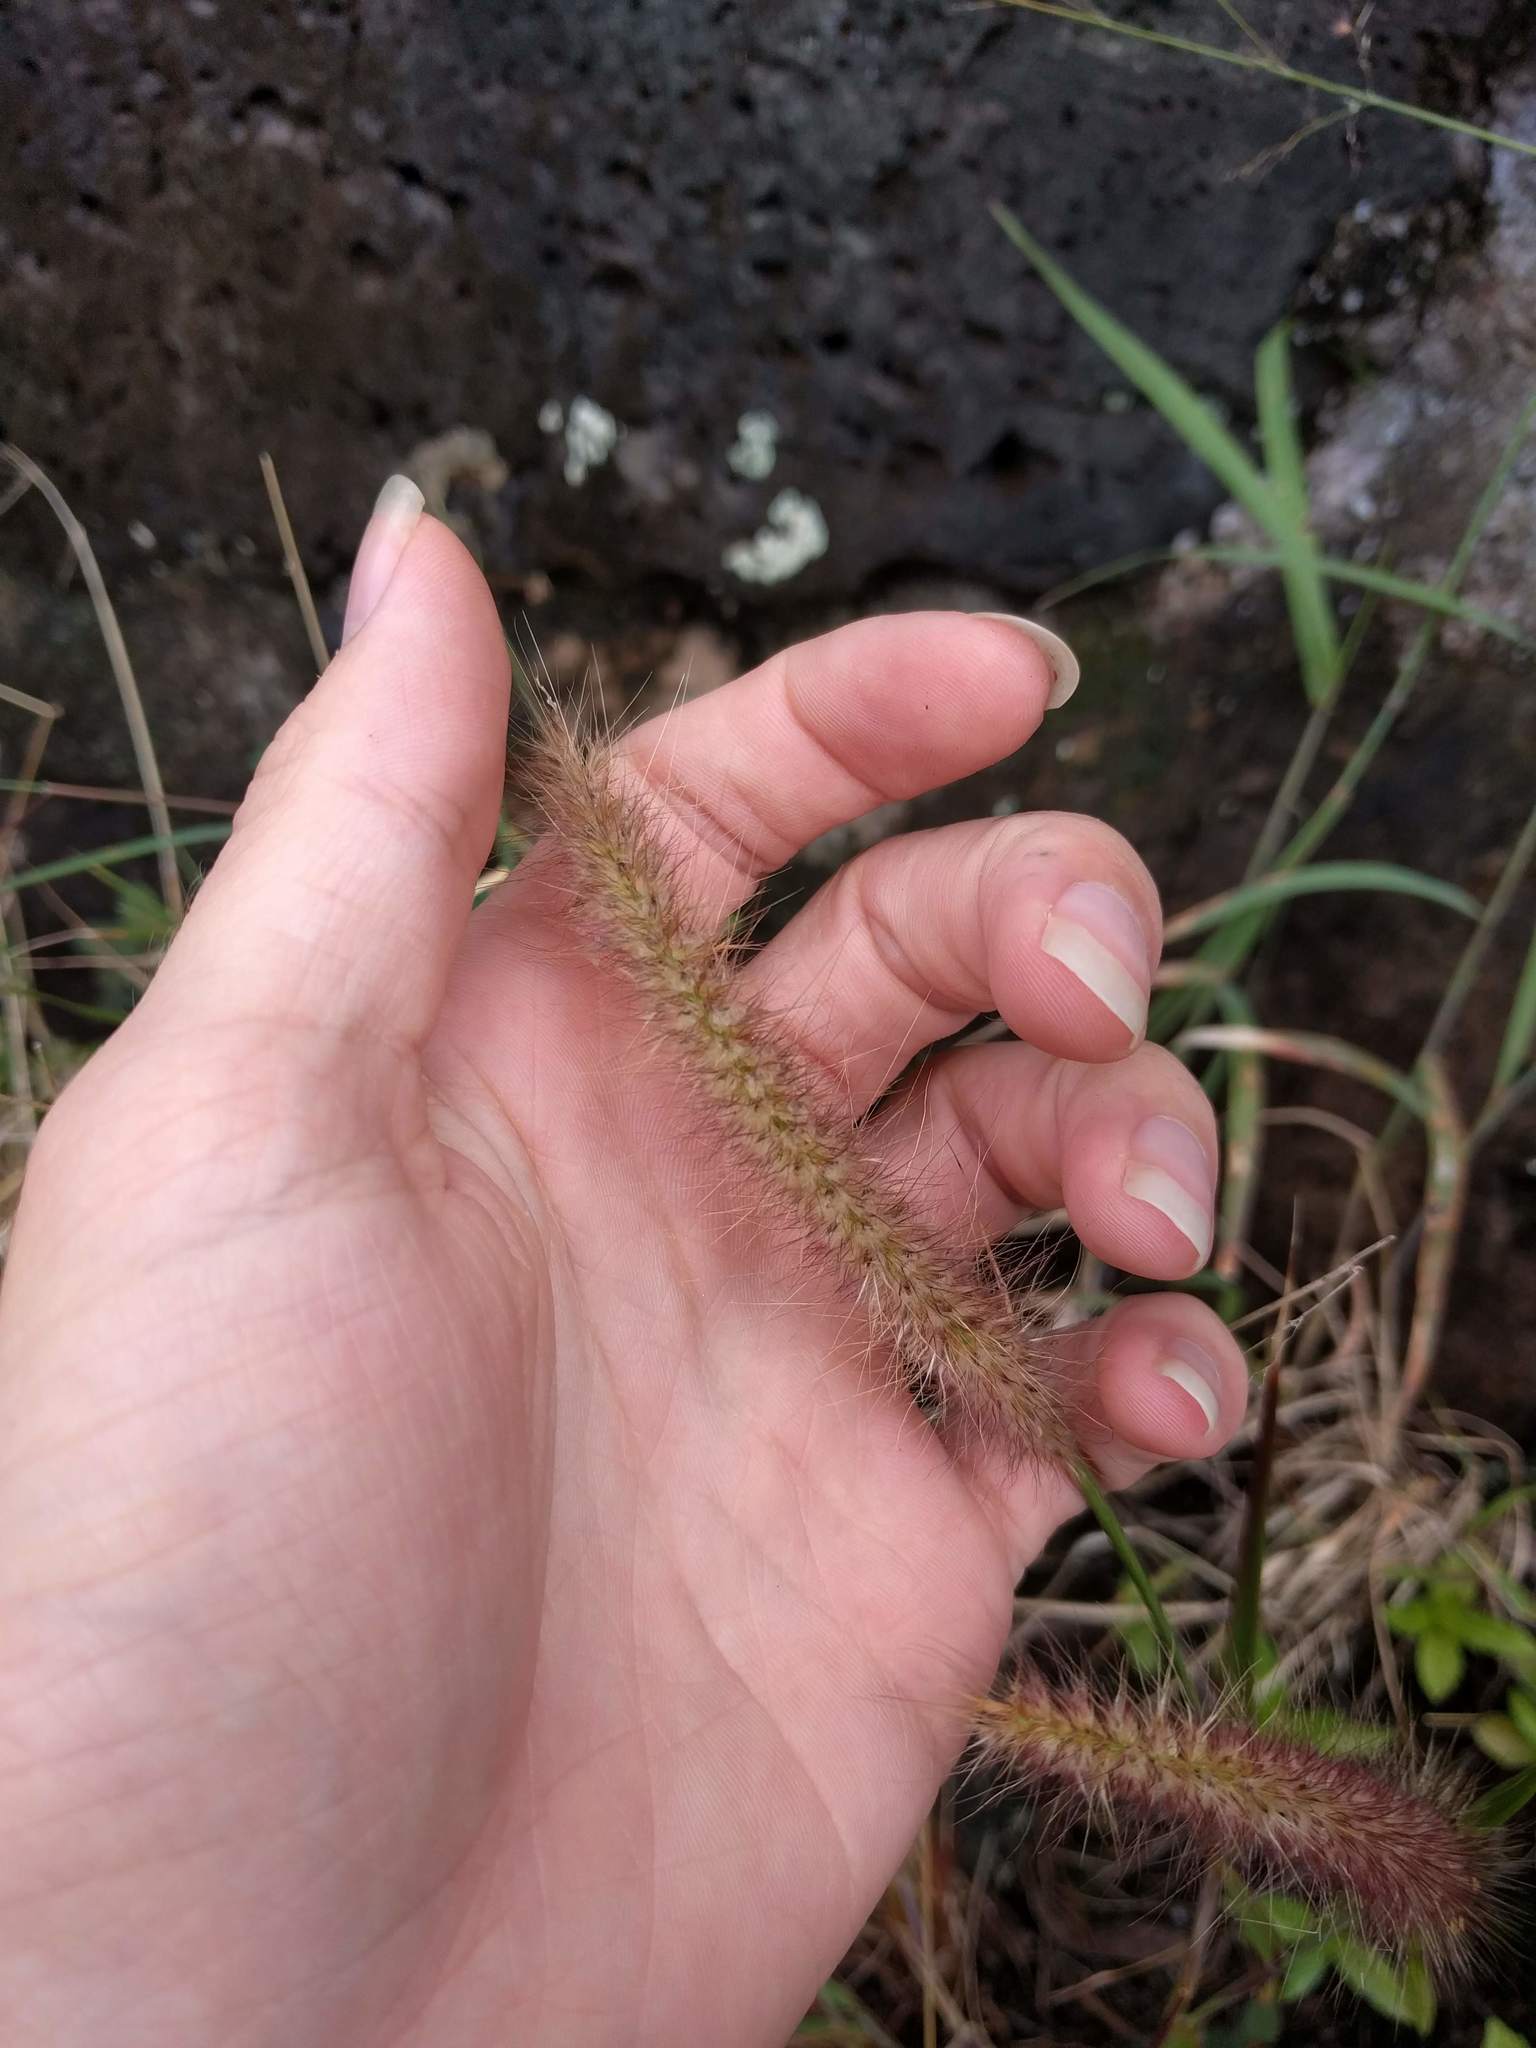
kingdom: Plantae
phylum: Tracheophyta
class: Liliopsida
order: Poales
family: Poaceae
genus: Cenchrus
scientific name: Cenchrus setosus
